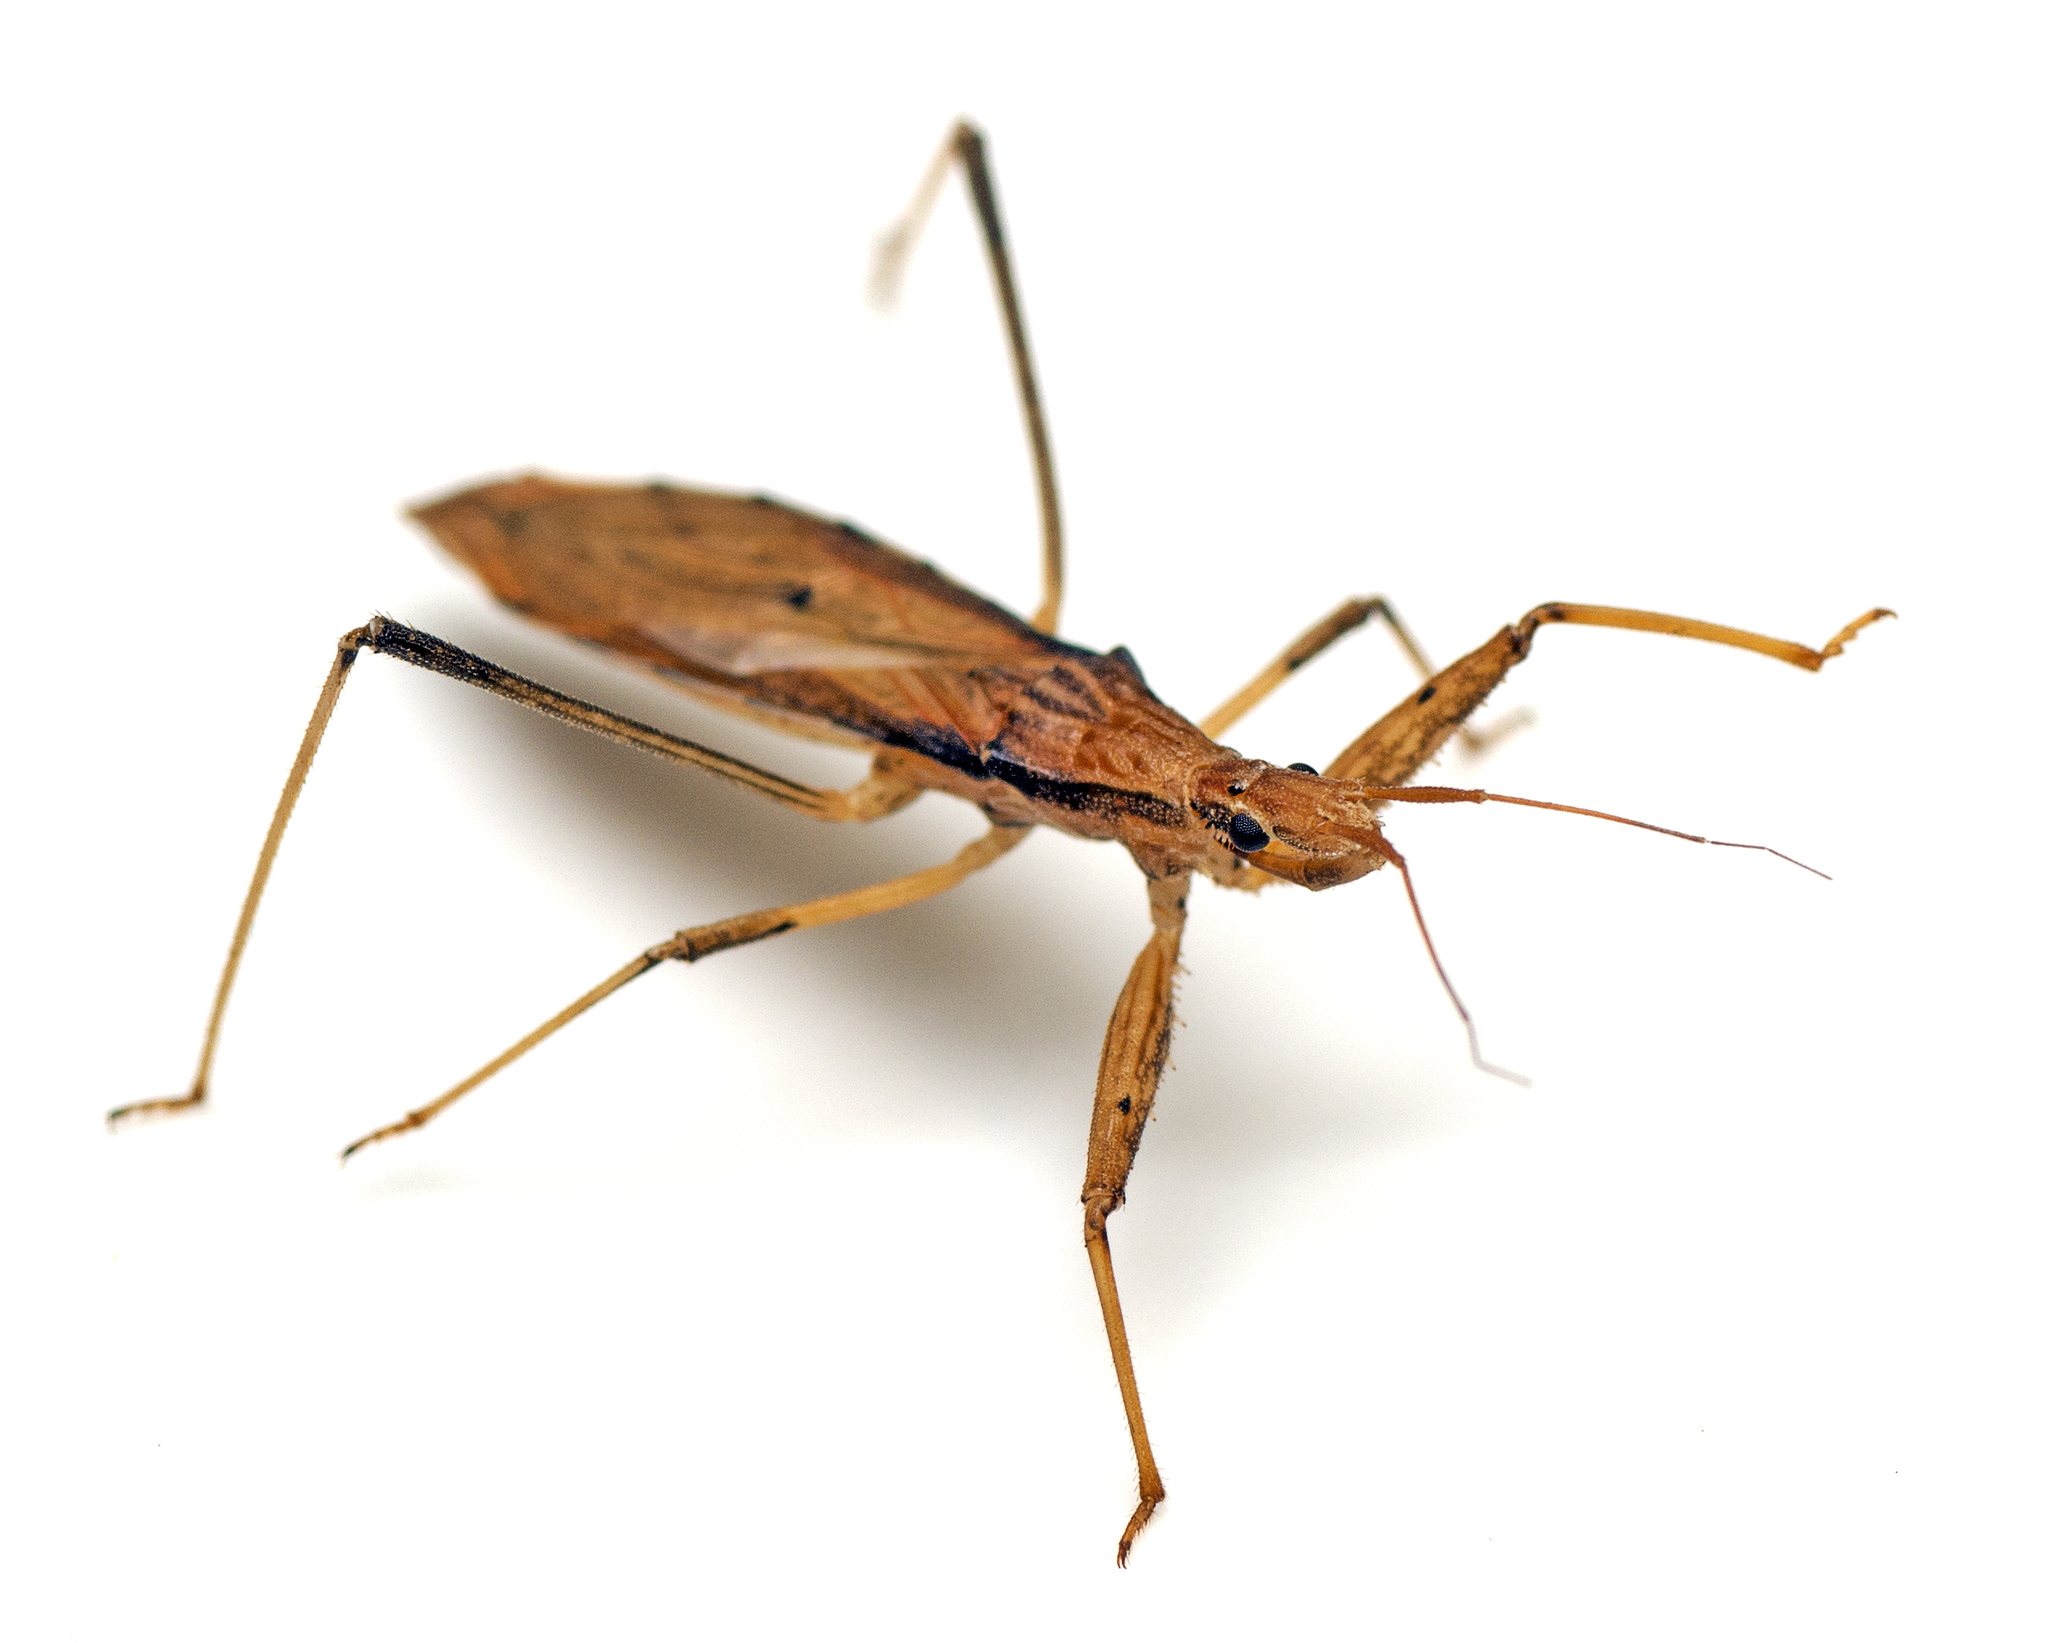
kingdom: Animalia
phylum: Arthropoda
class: Insecta
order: Hemiptera
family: Reduviidae
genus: Sastrapada
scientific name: Sastrapada australica
